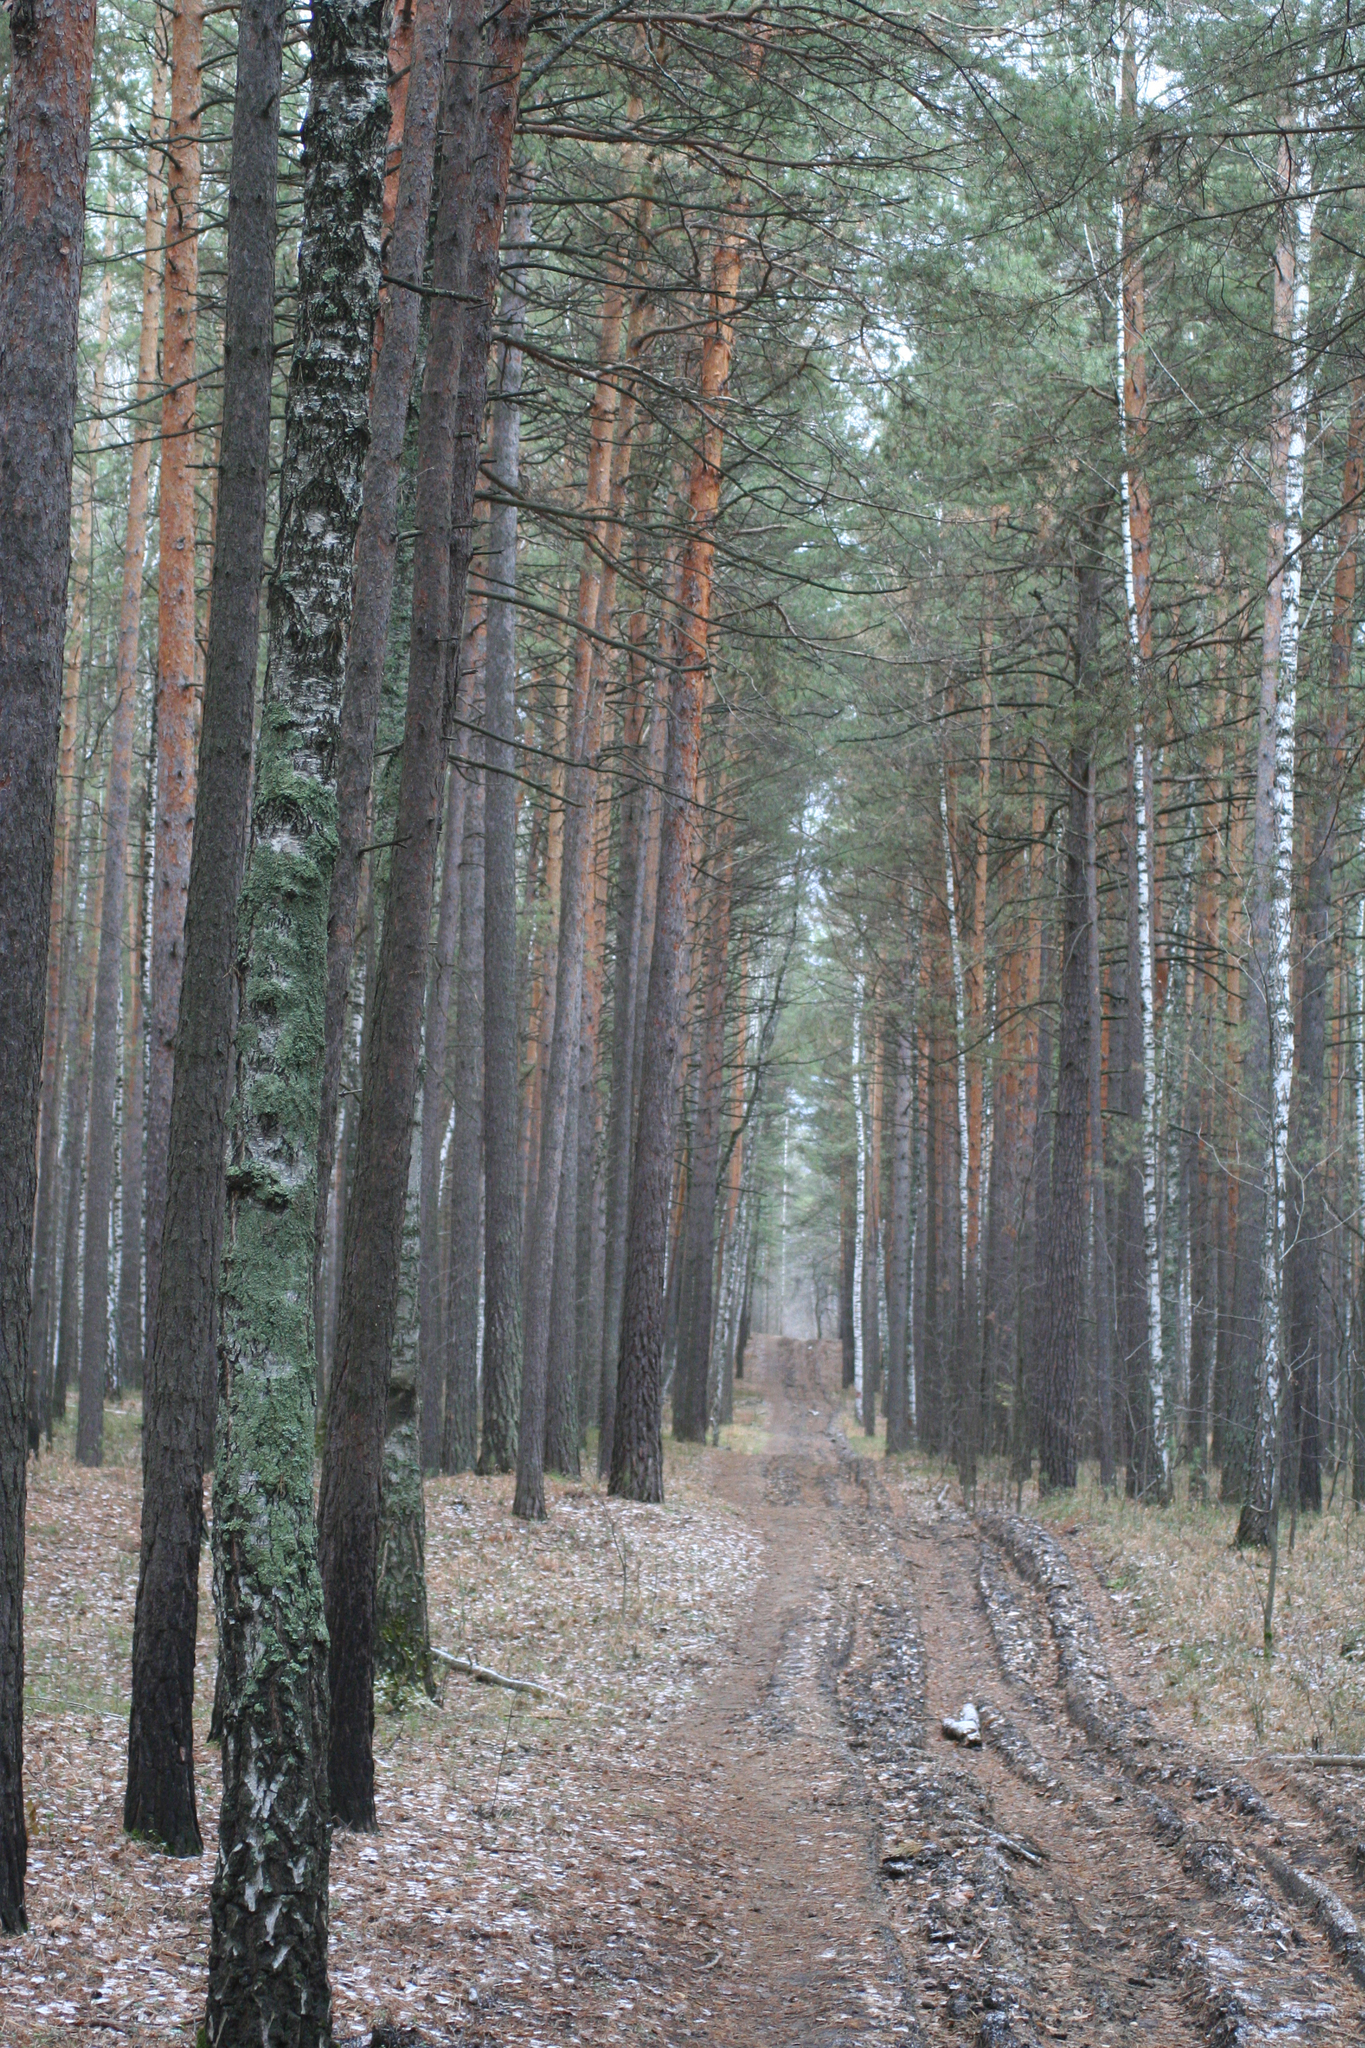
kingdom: Plantae
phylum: Tracheophyta
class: Pinopsida
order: Pinales
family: Pinaceae
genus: Pinus
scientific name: Pinus sylvestris
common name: Scots pine
